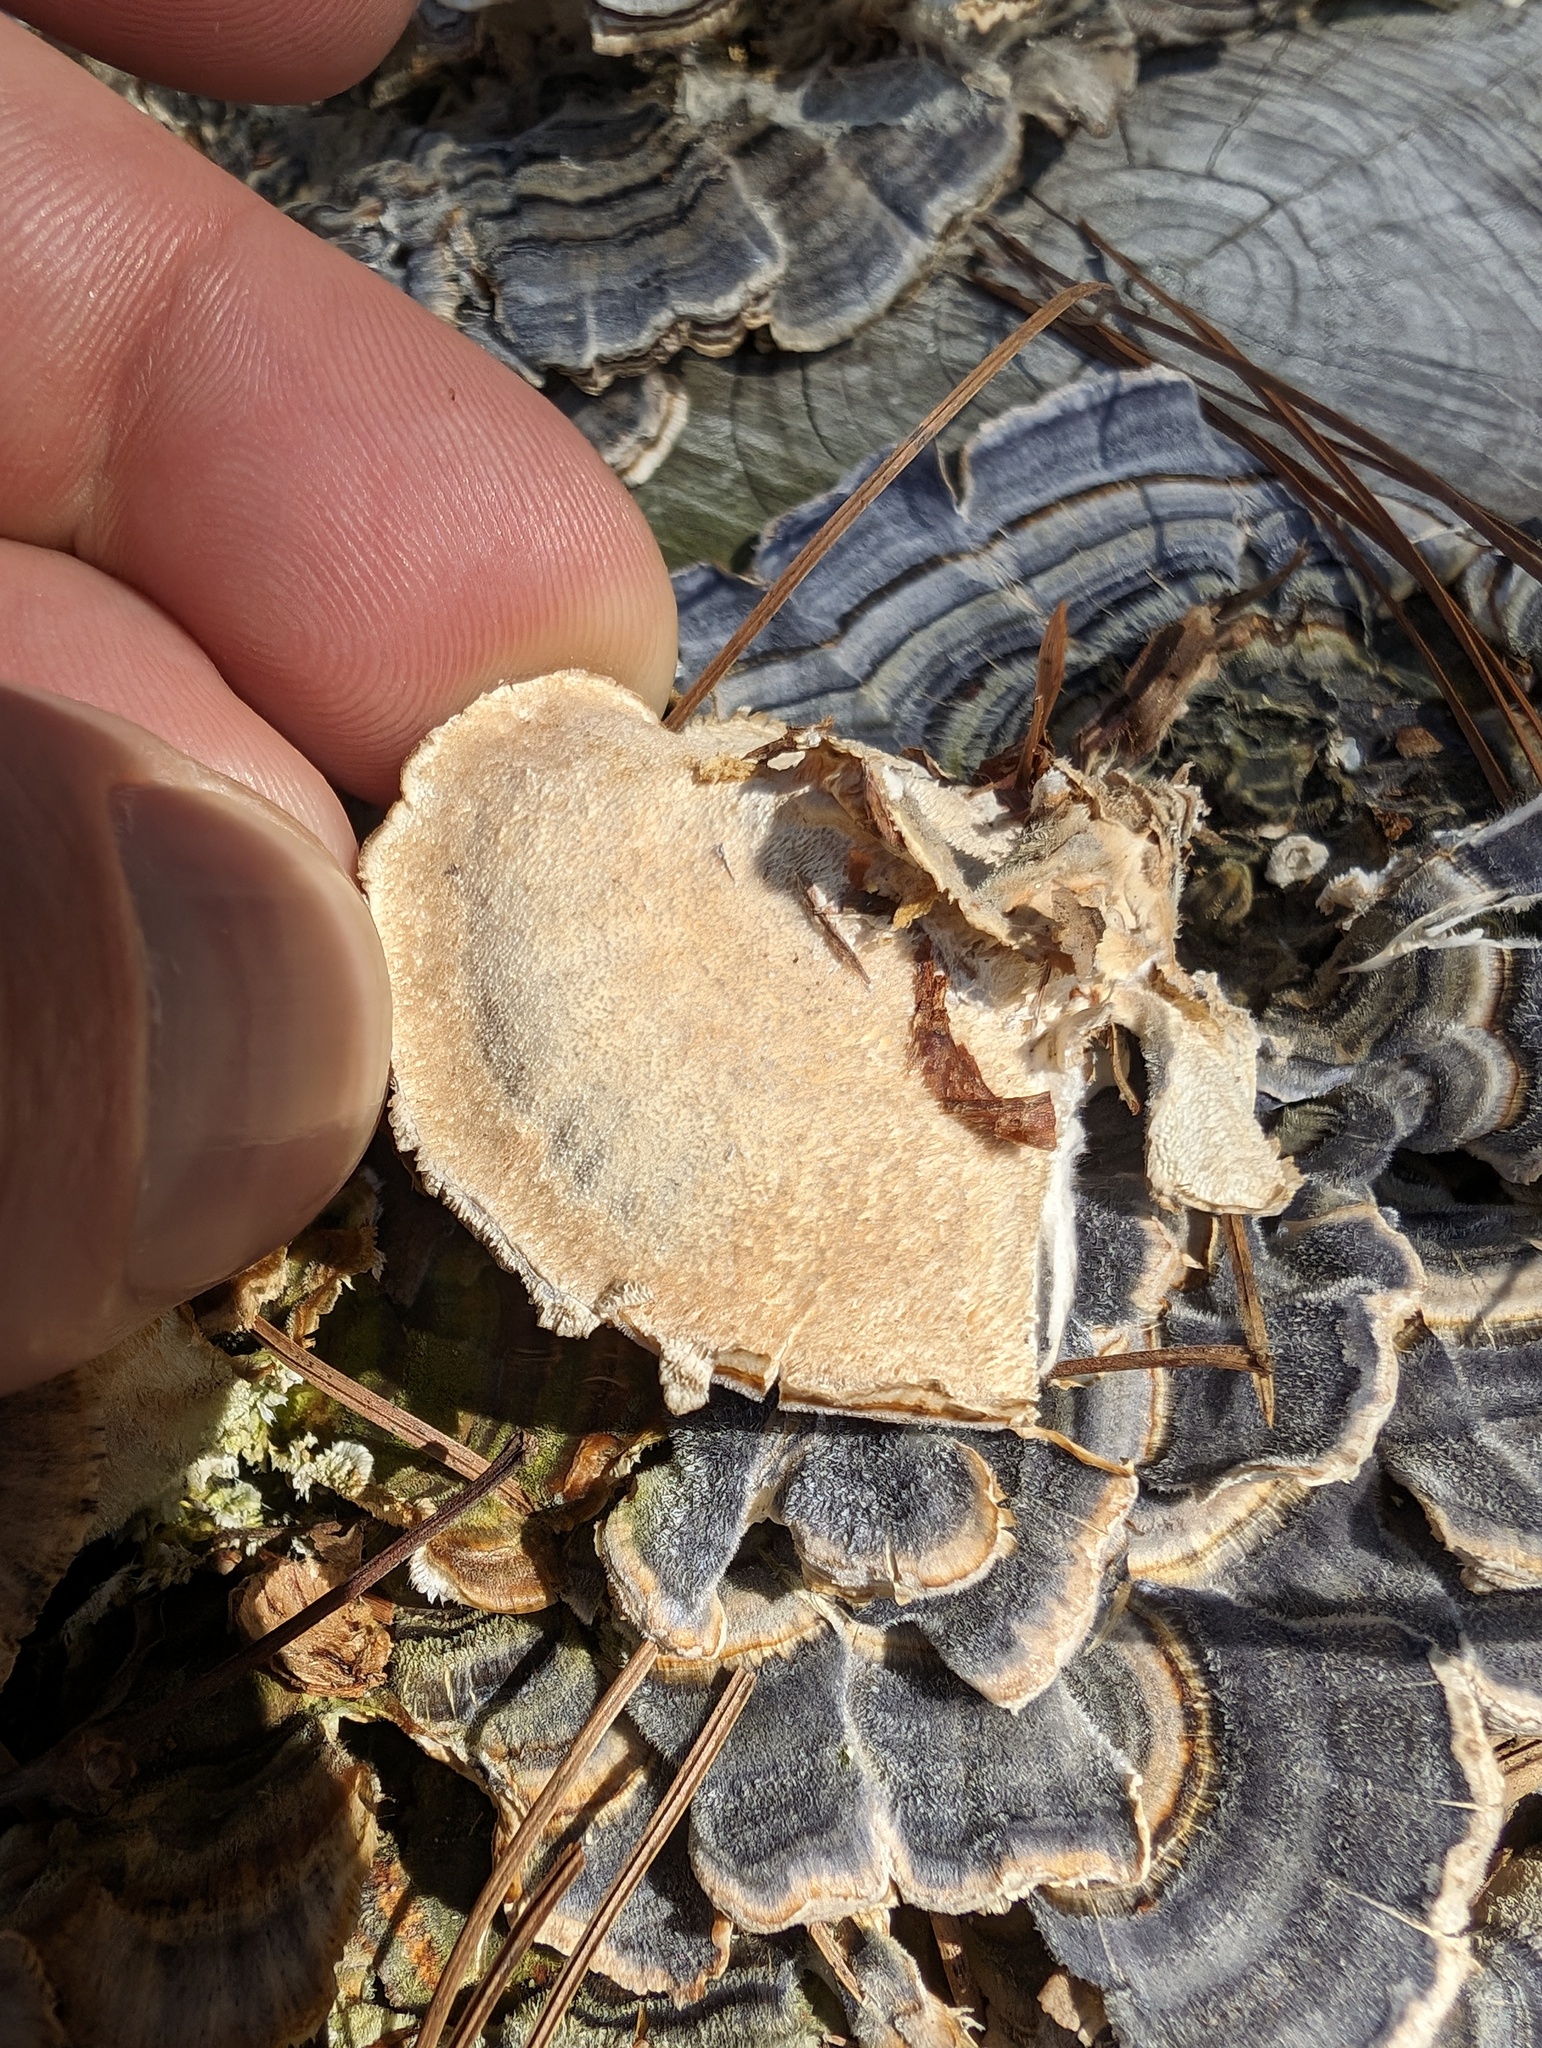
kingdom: Fungi
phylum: Basidiomycota
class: Agaricomycetes
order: Polyporales
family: Polyporaceae
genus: Trametes
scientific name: Trametes versicolor
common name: Turkeytail
